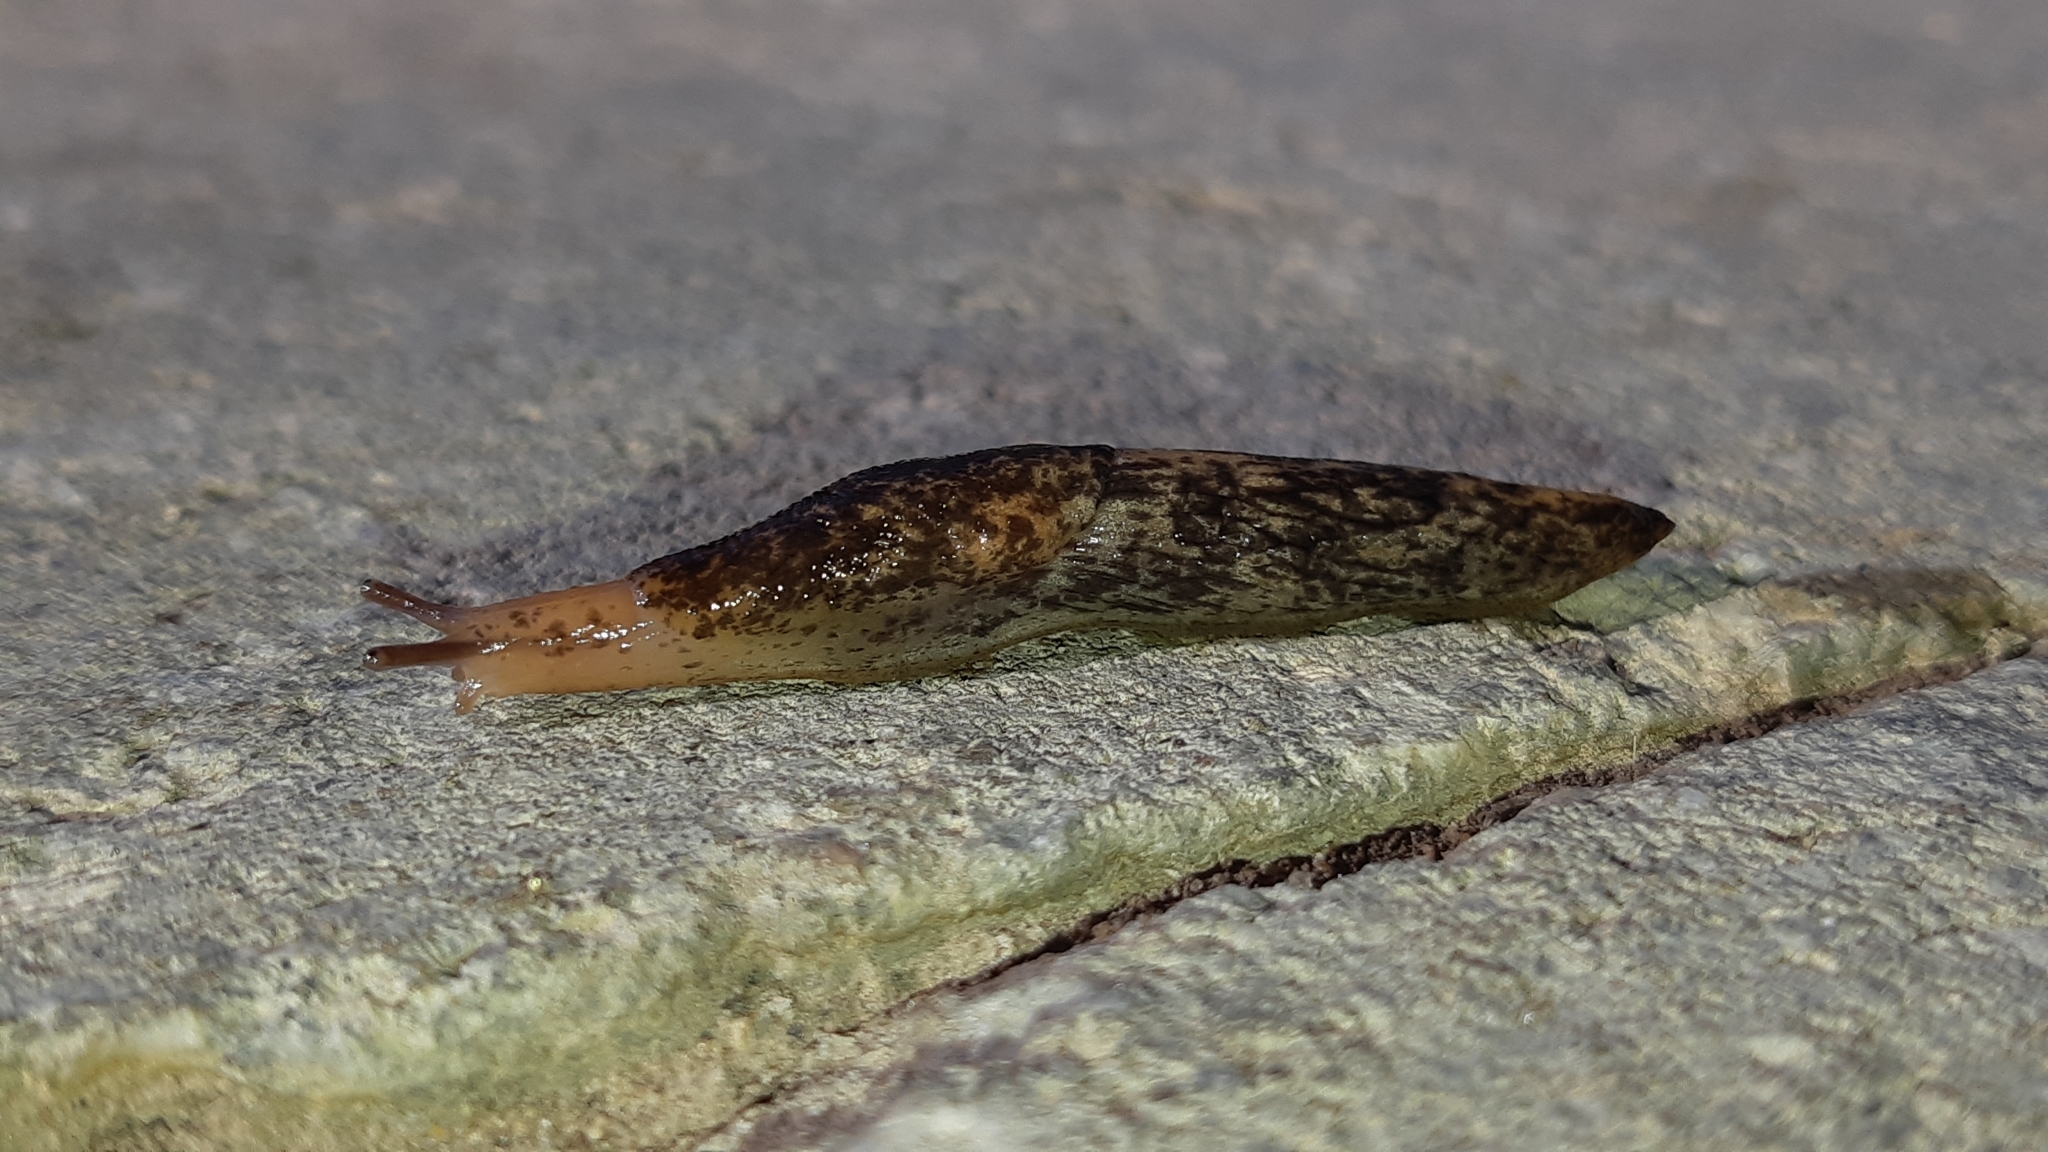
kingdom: Animalia
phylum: Mollusca
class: Gastropoda
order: Stylommatophora
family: Agriolimacidae
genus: Deroceras
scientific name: Deroceras reticulatum
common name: Gray field slug
